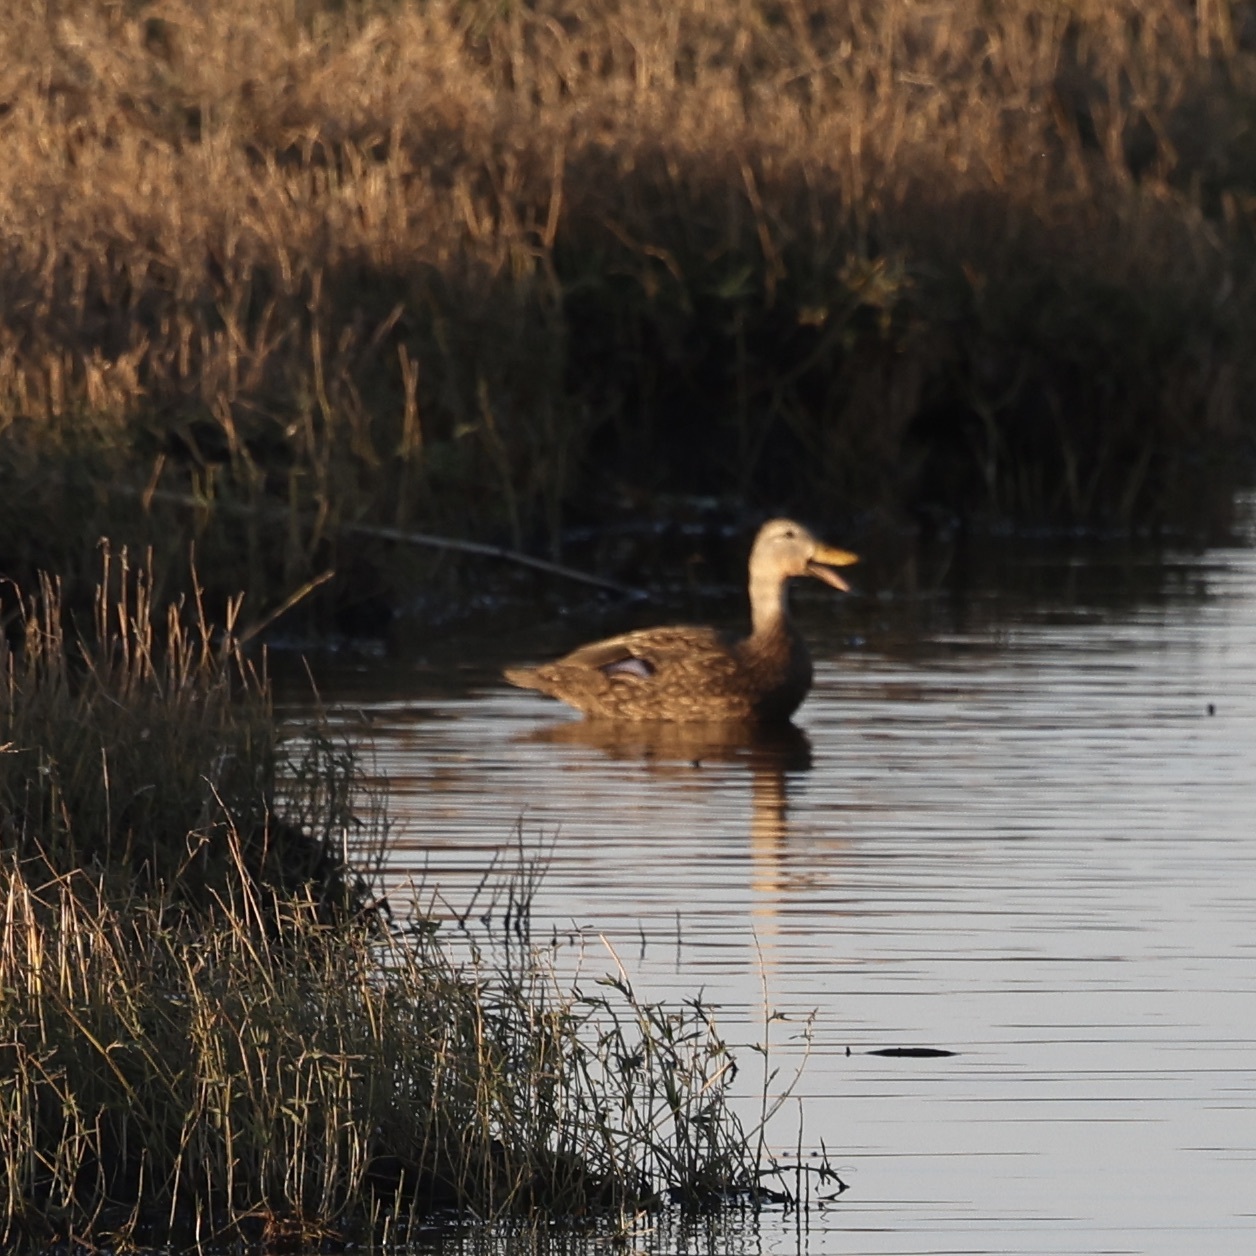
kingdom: Animalia
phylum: Chordata
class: Aves
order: Anseriformes
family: Anatidae
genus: Anas
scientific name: Anas fulvigula
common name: Mottled duck
